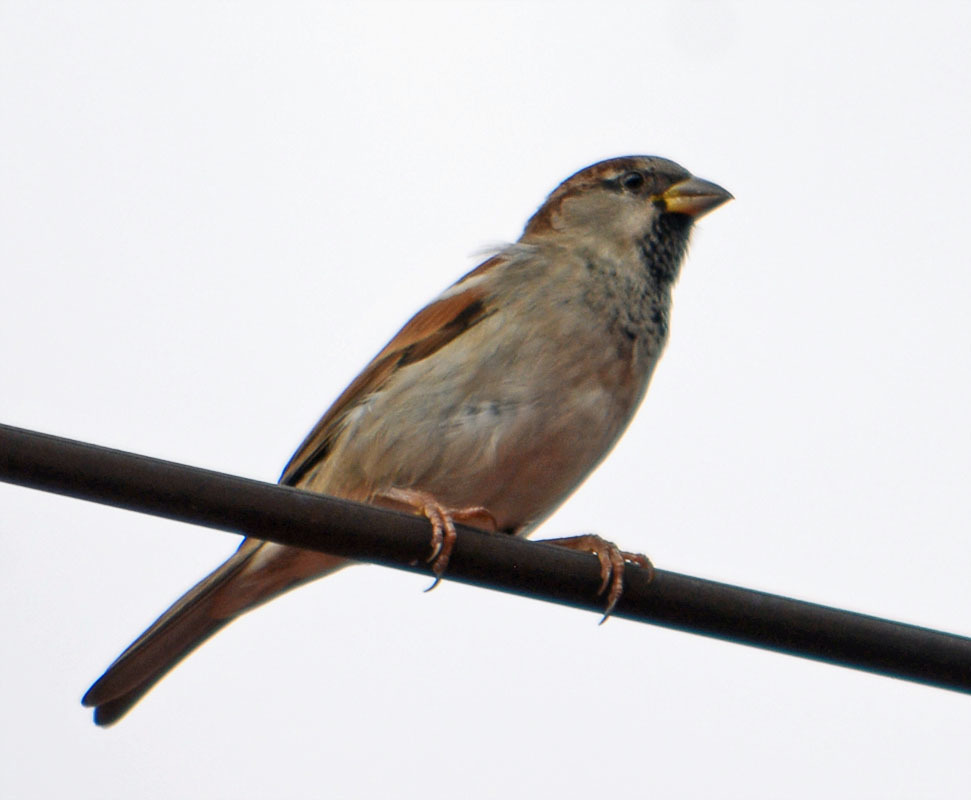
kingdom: Animalia
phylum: Chordata
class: Aves
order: Passeriformes
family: Passeridae
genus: Passer
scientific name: Passer domesticus
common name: House sparrow
